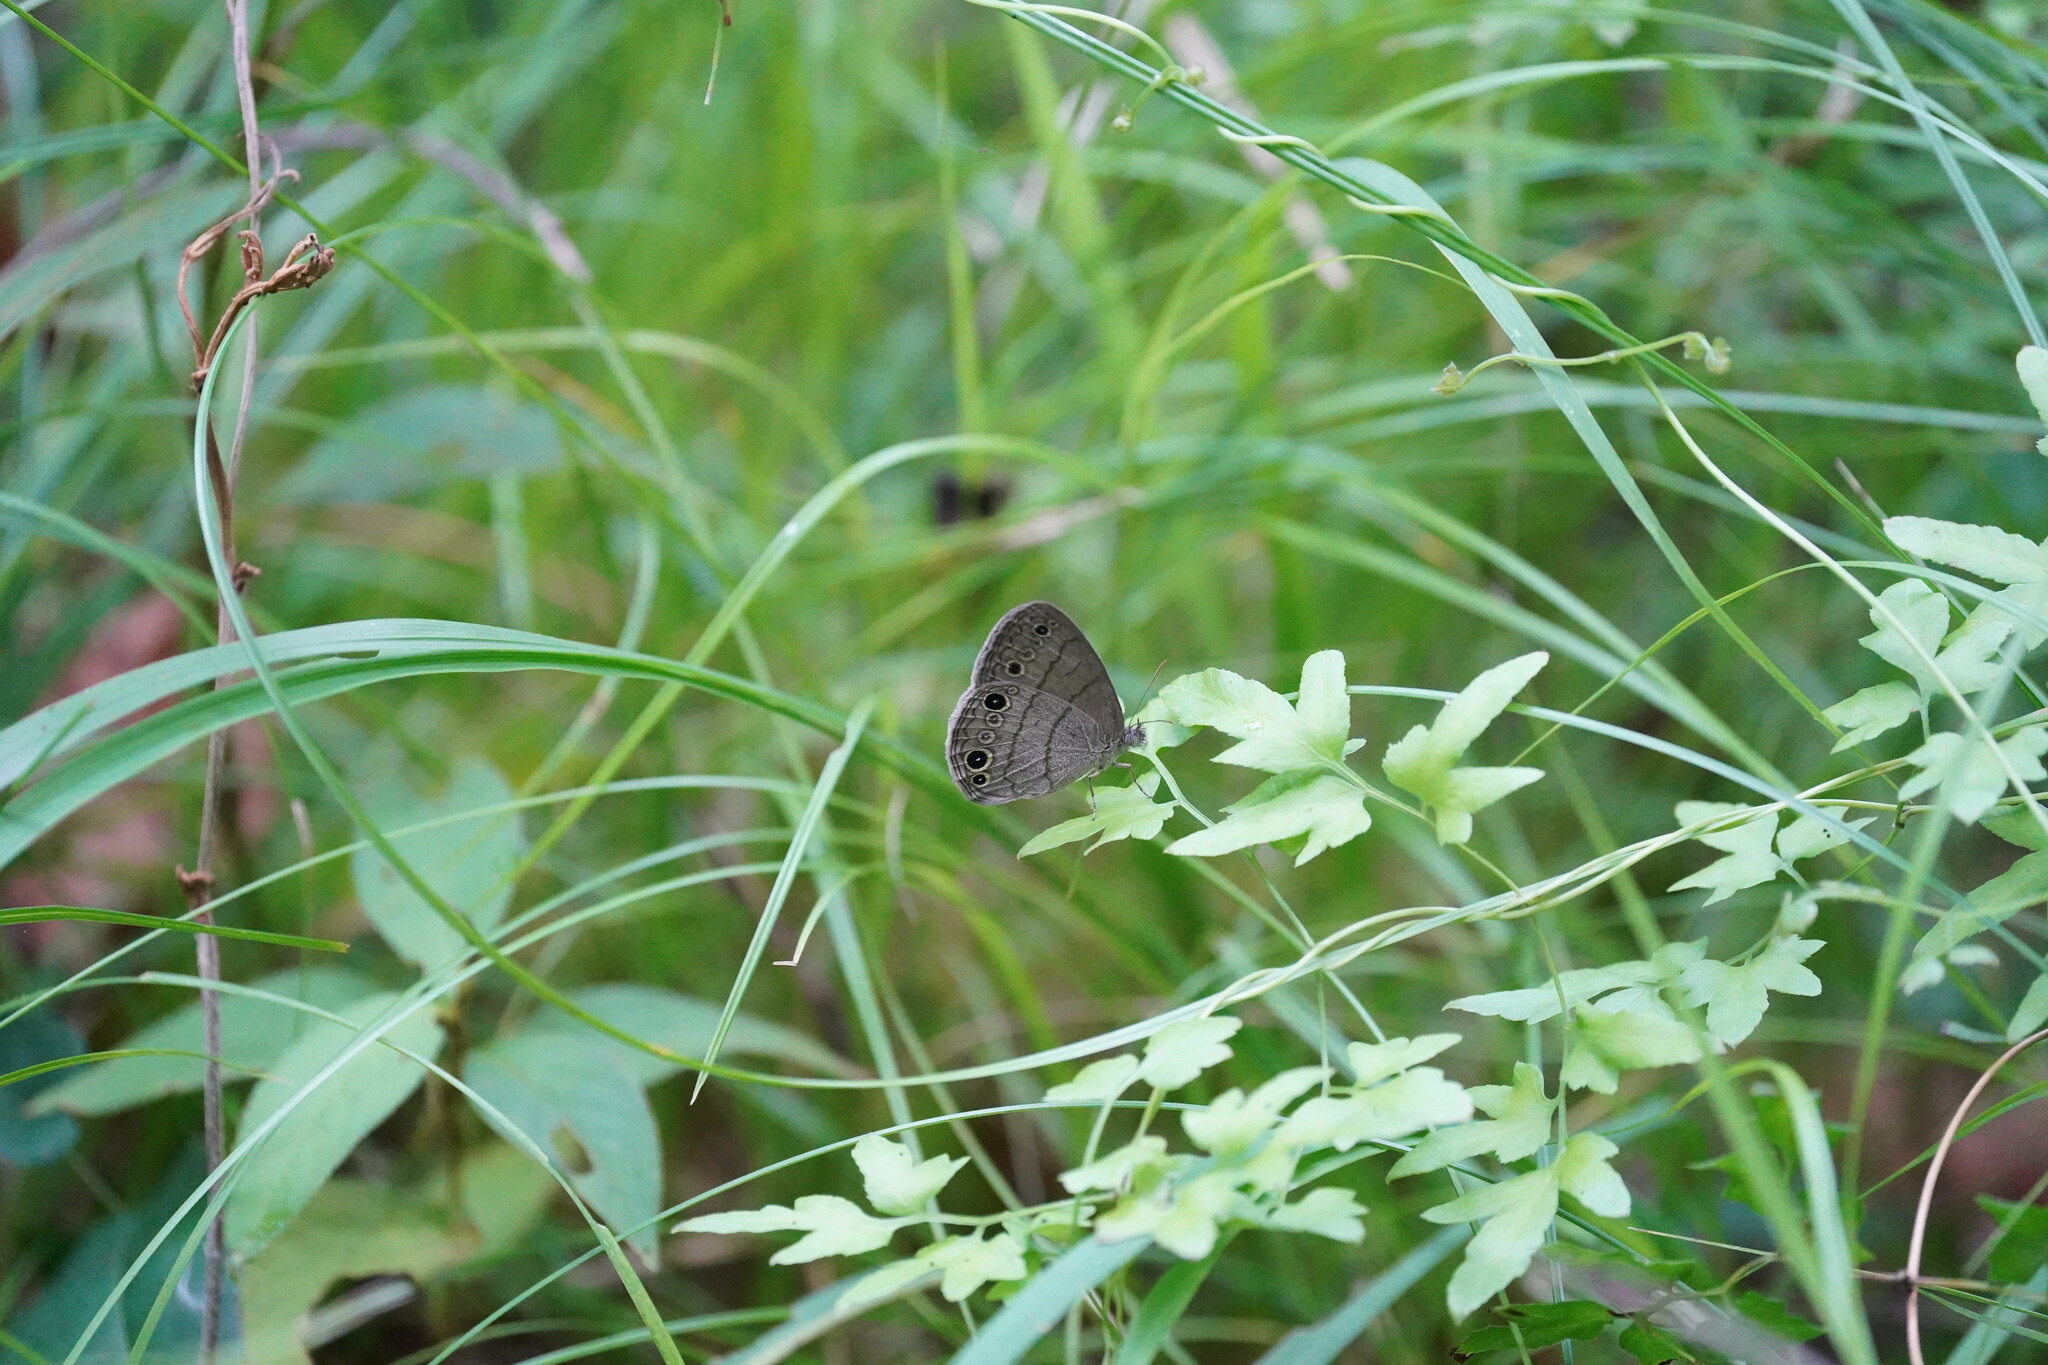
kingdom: Animalia
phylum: Arthropoda
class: Insecta
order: Lepidoptera
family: Nymphalidae
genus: Hermeuptychia
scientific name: Hermeuptychia hermes
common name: Hermes satyr
